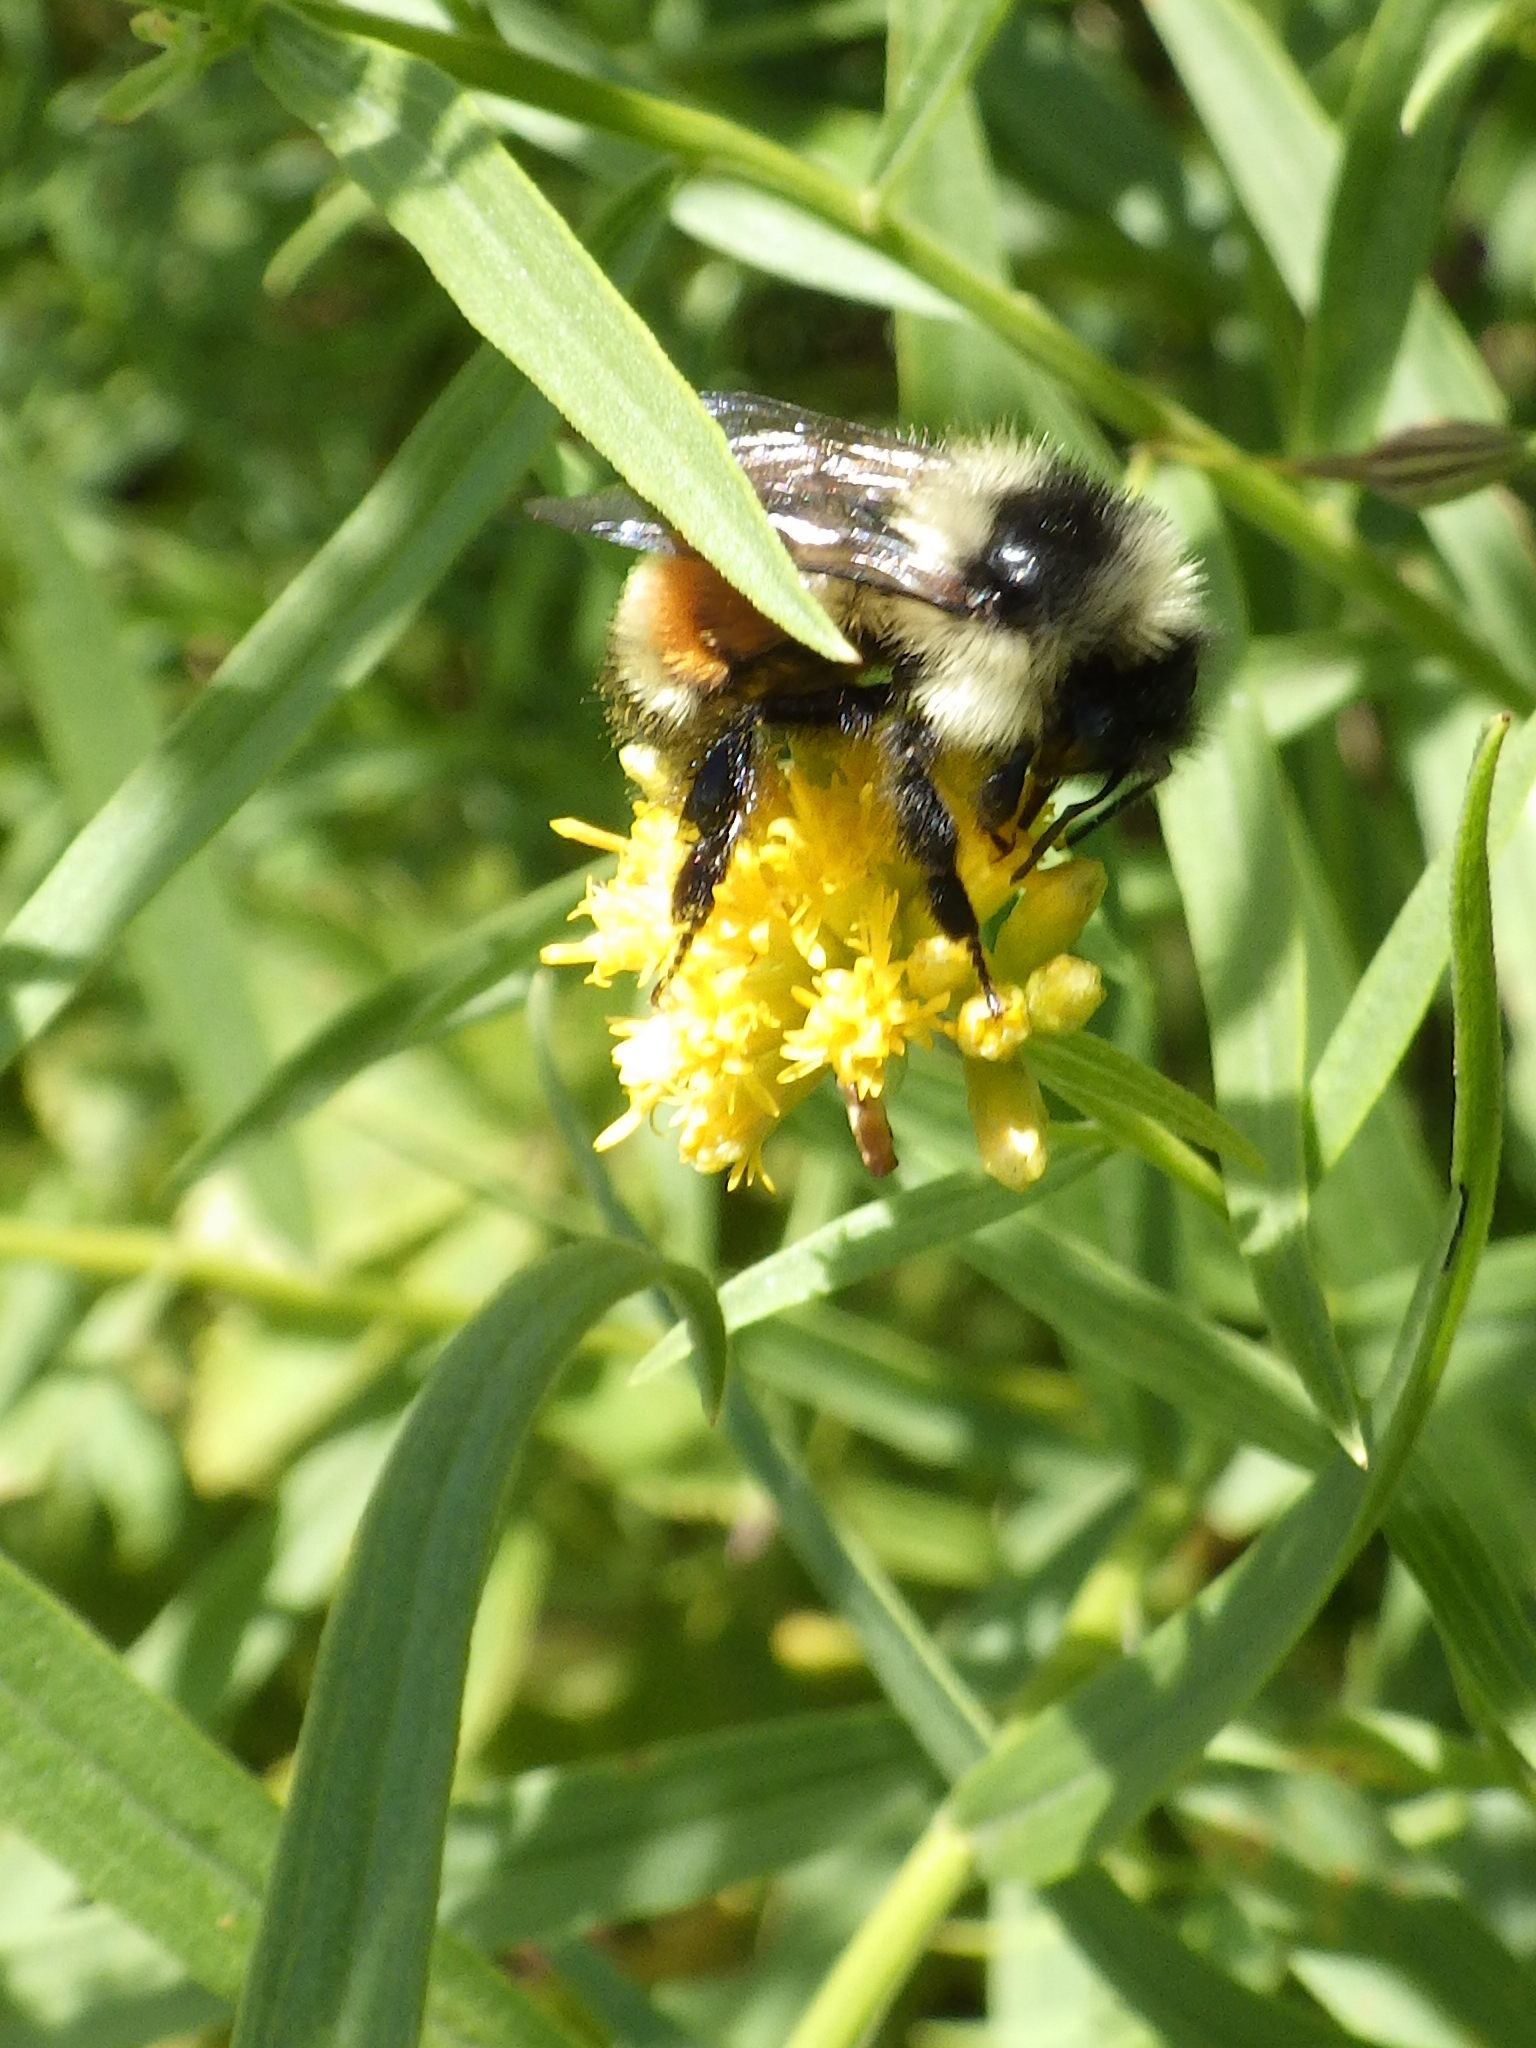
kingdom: Animalia
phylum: Arthropoda
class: Insecta
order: Hymenoptera
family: Apidae
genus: Bombus
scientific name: Bombus ternarius
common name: Tri-colored bumble bee
